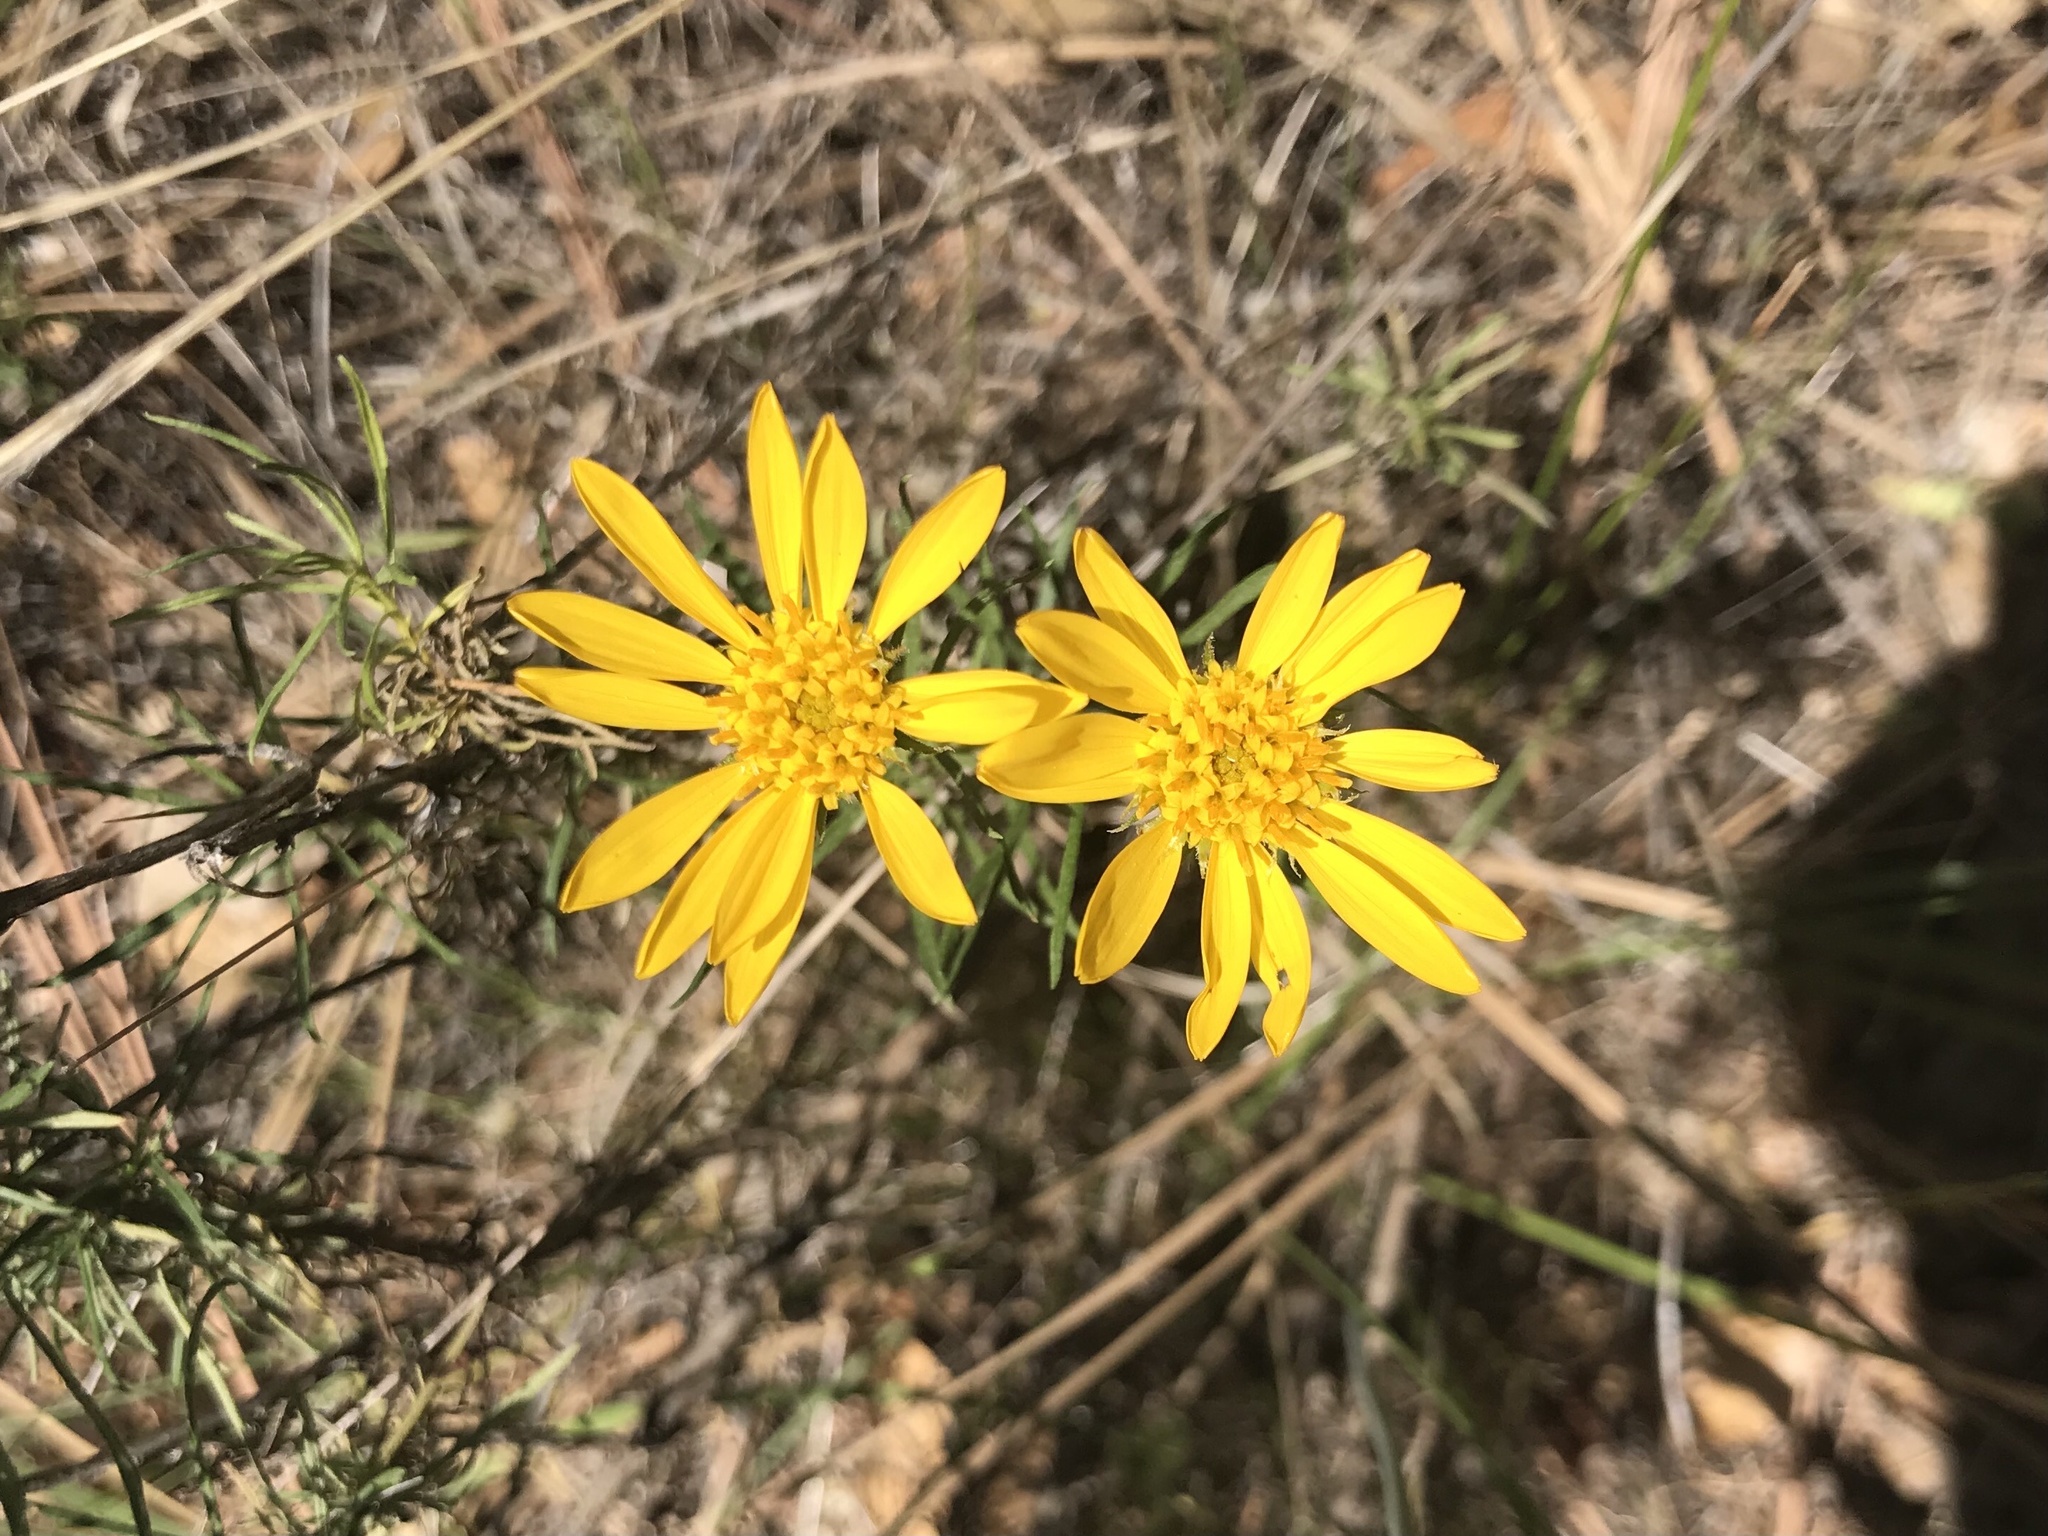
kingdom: Plantae
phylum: Tracheophyta
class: Magnoliopsida
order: Asterales
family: Asteraceae
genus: Ericameria
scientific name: Ericameria linearifolia
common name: Interior goldenbush
